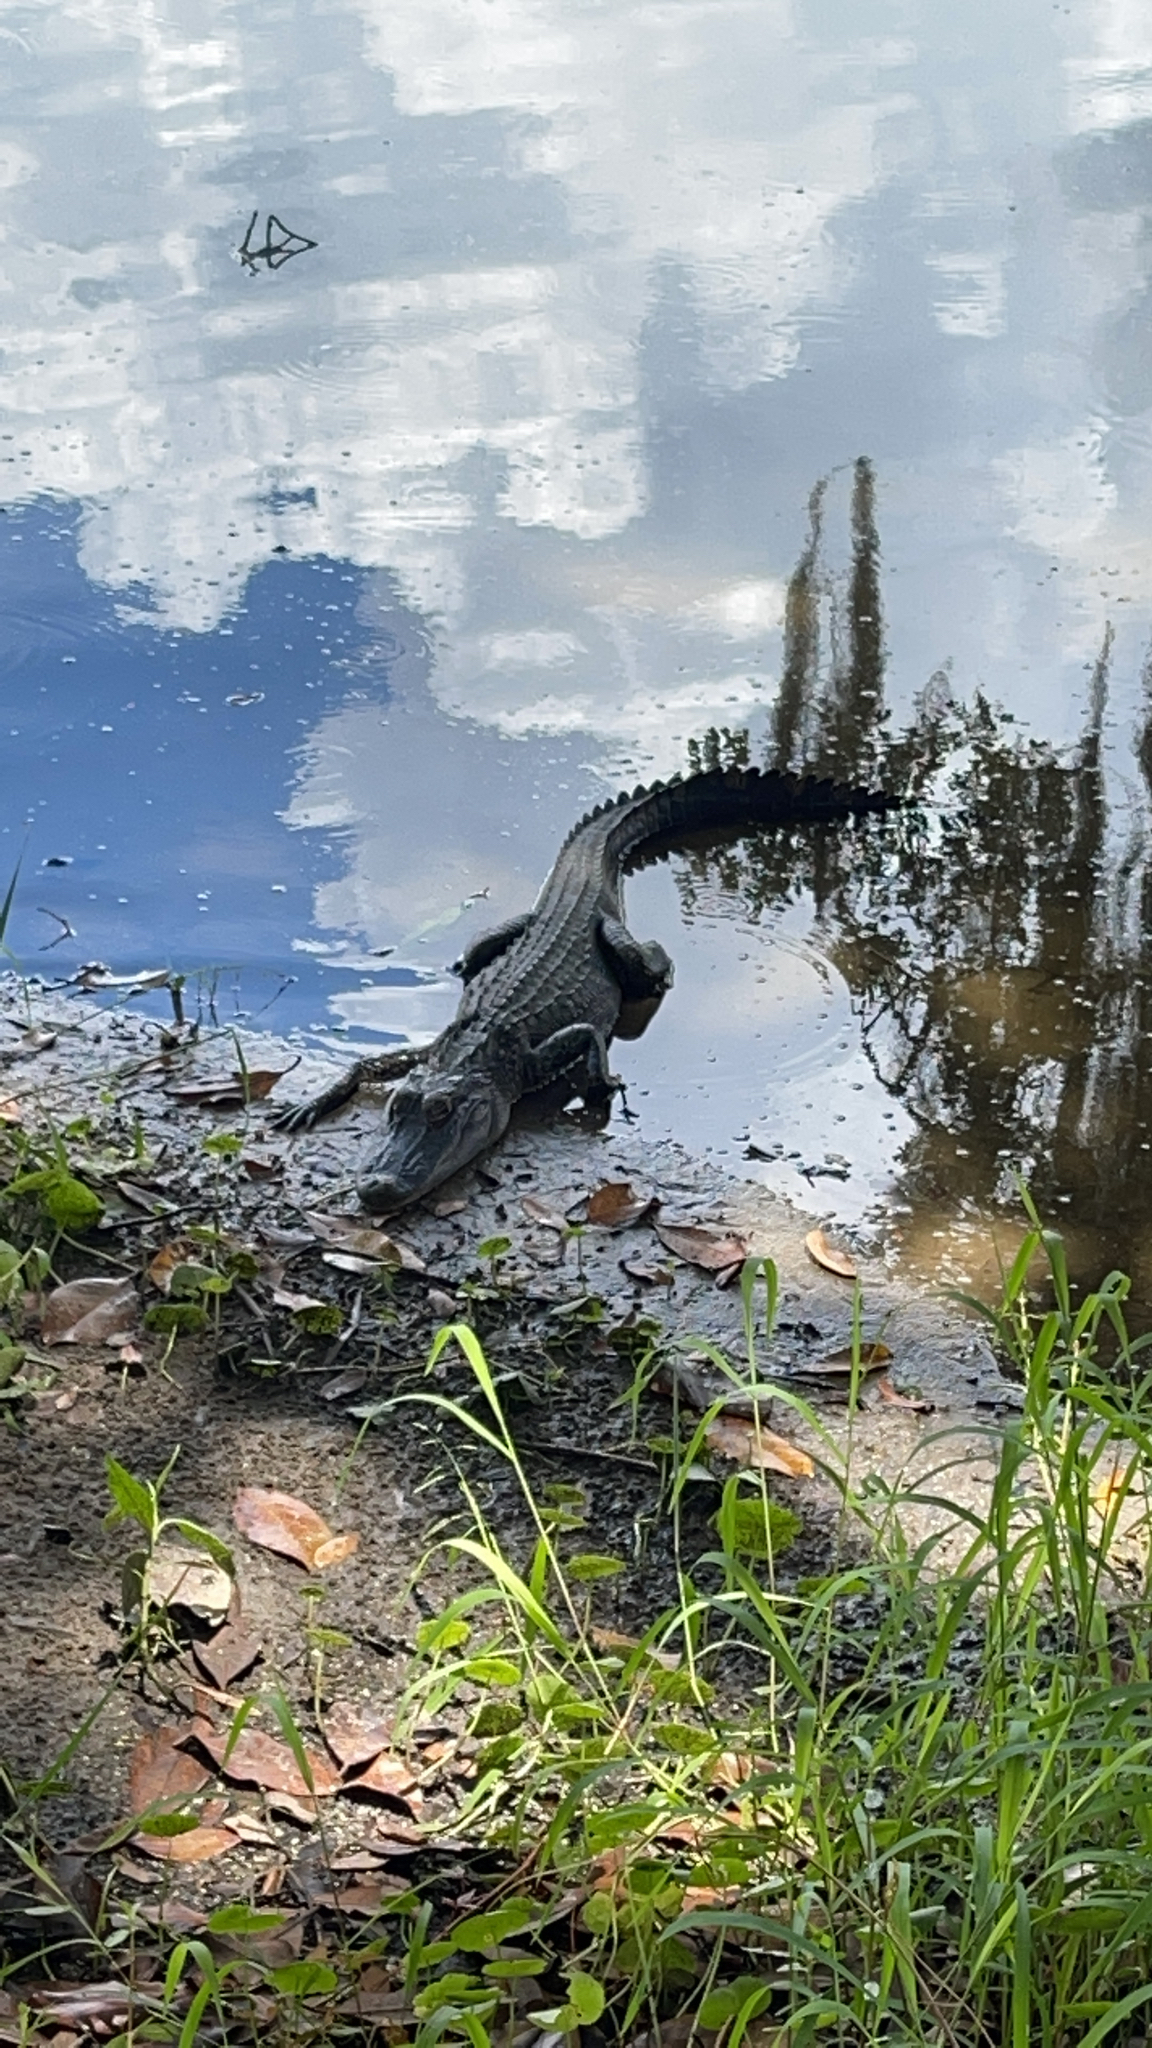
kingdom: Animalia
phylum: Chordata
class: Crocodylia
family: Alligatoridae
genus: Alligator
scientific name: Alligator mississippiensis
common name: American alligator
